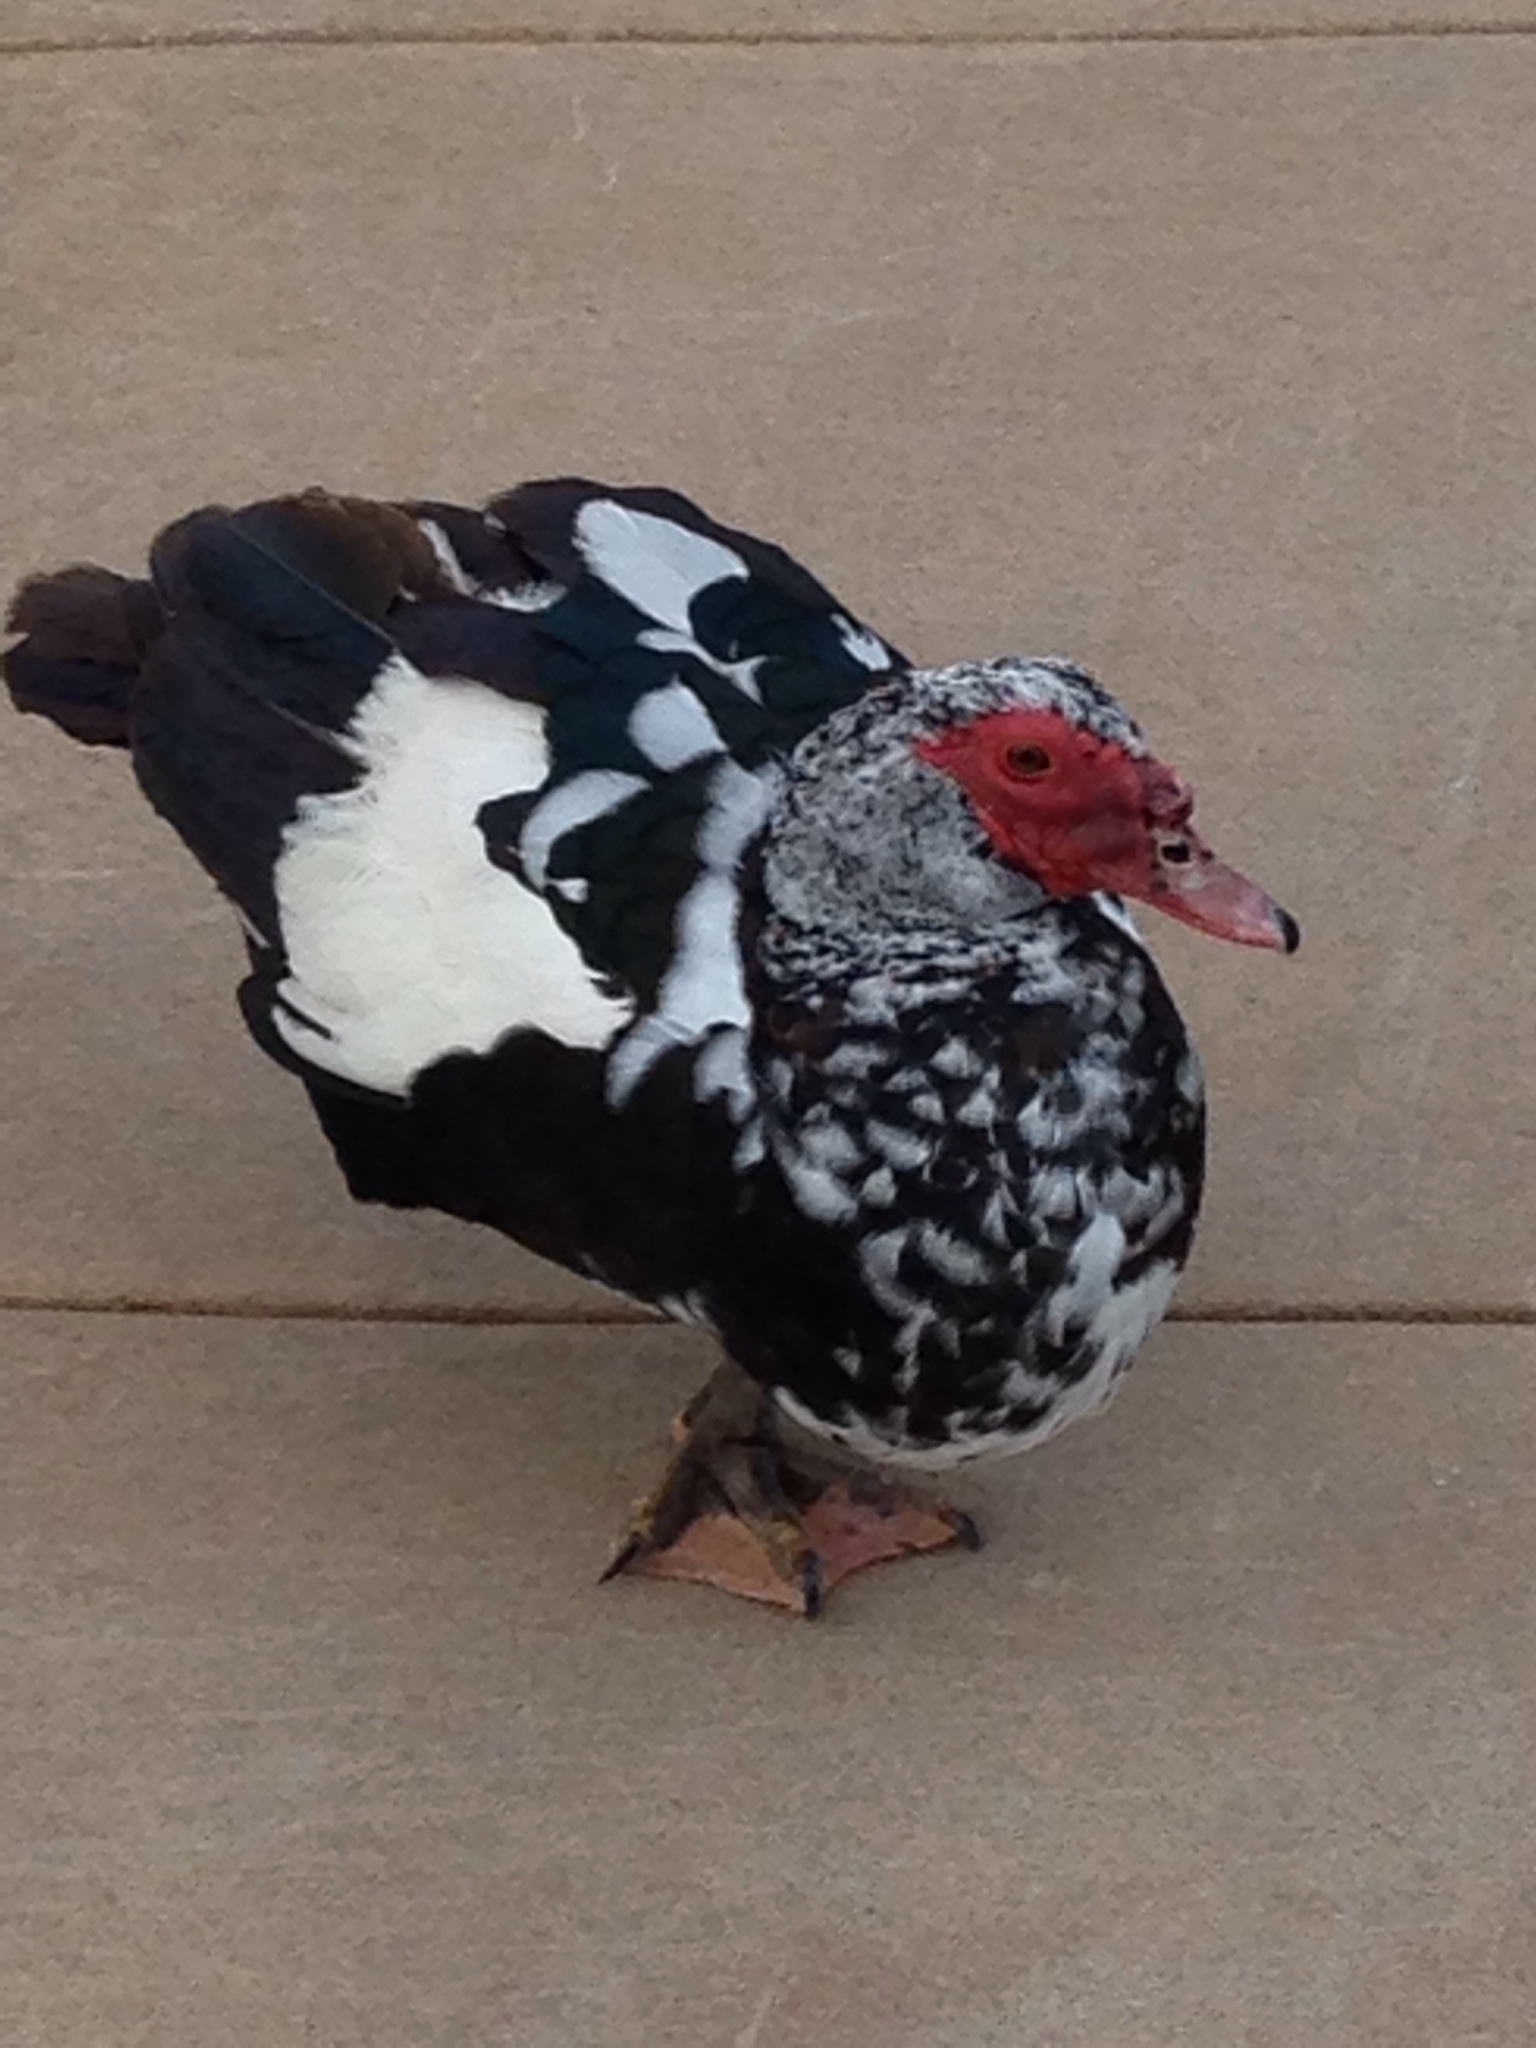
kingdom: Animalia
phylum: Chordata
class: Aves
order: Anseriformes
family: Anatidae
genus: Cairina
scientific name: Cairina moschata
